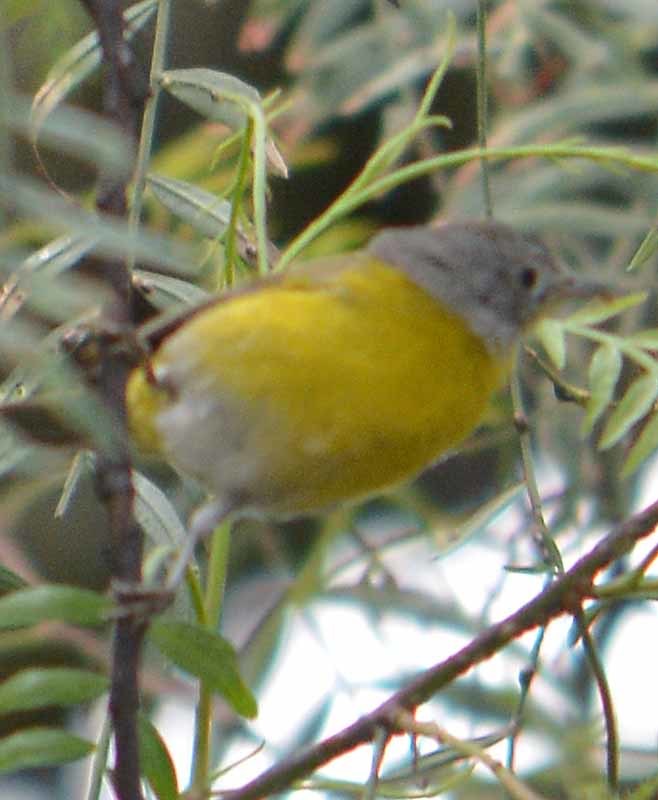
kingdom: Animalia
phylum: Chordata
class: Aves
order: Passeriformes
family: Parulidae
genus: Leiothlypis
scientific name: Leiothlypis ruficapilla
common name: Nashville warbler
